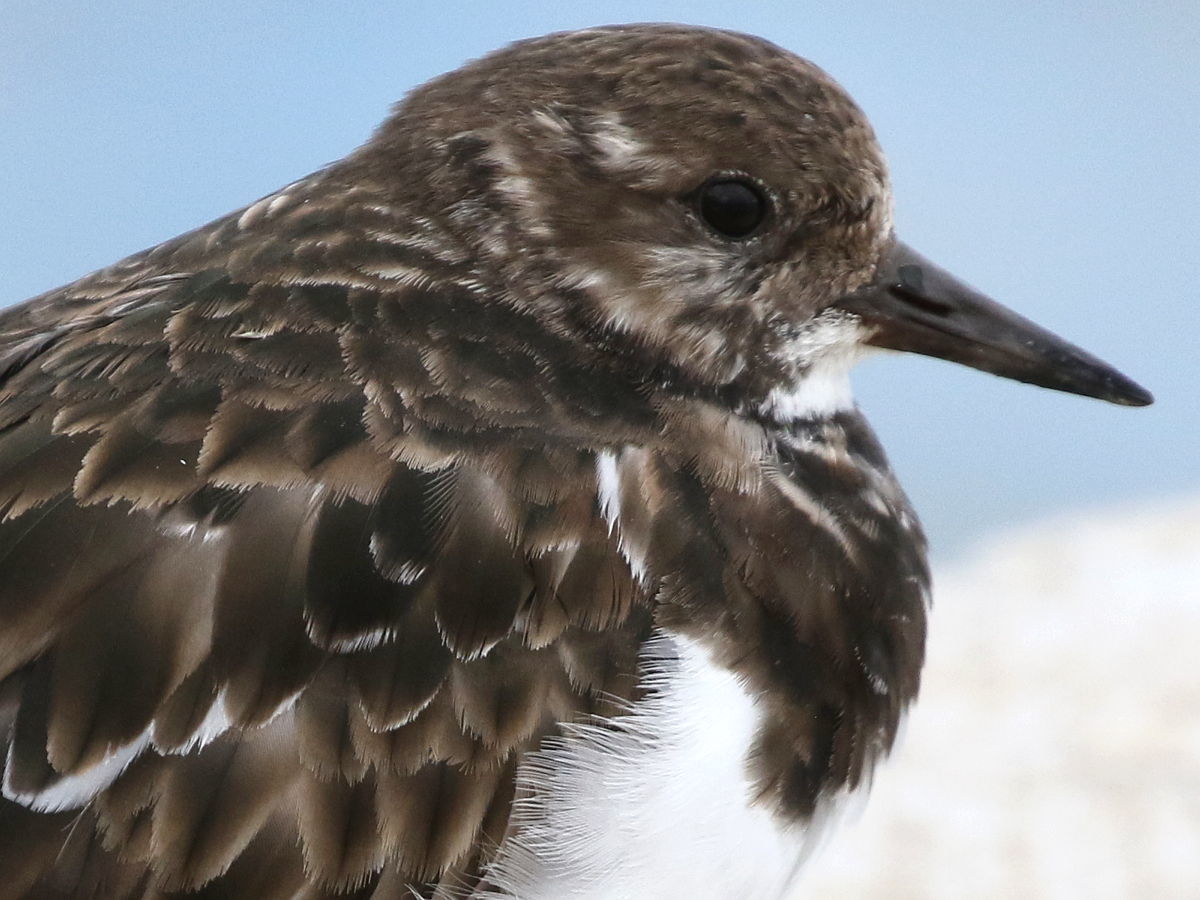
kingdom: Animalia
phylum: Chordata
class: Aves
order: Charadriiformes
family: Scolopacidae
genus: Arenaria
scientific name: Arenaria interpres
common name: Ruddy turnstone
